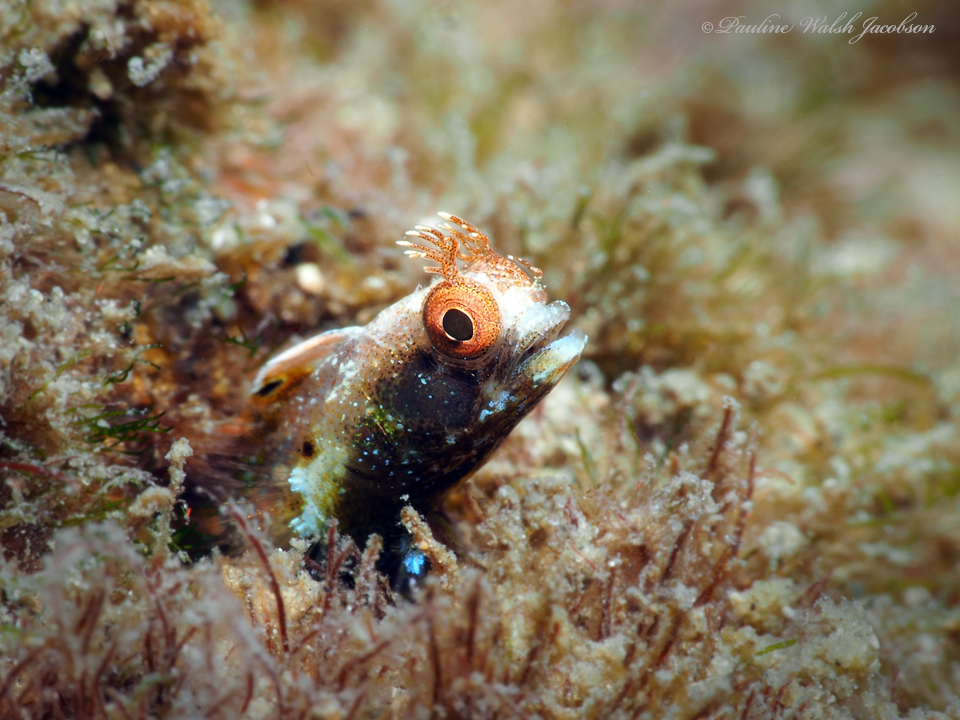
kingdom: Animalia
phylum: Chordata
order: Perciformes
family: Chaenopsidae
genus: Acanthemblemaria
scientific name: Acanthemblemaria aspera
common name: Roughhead blenny
